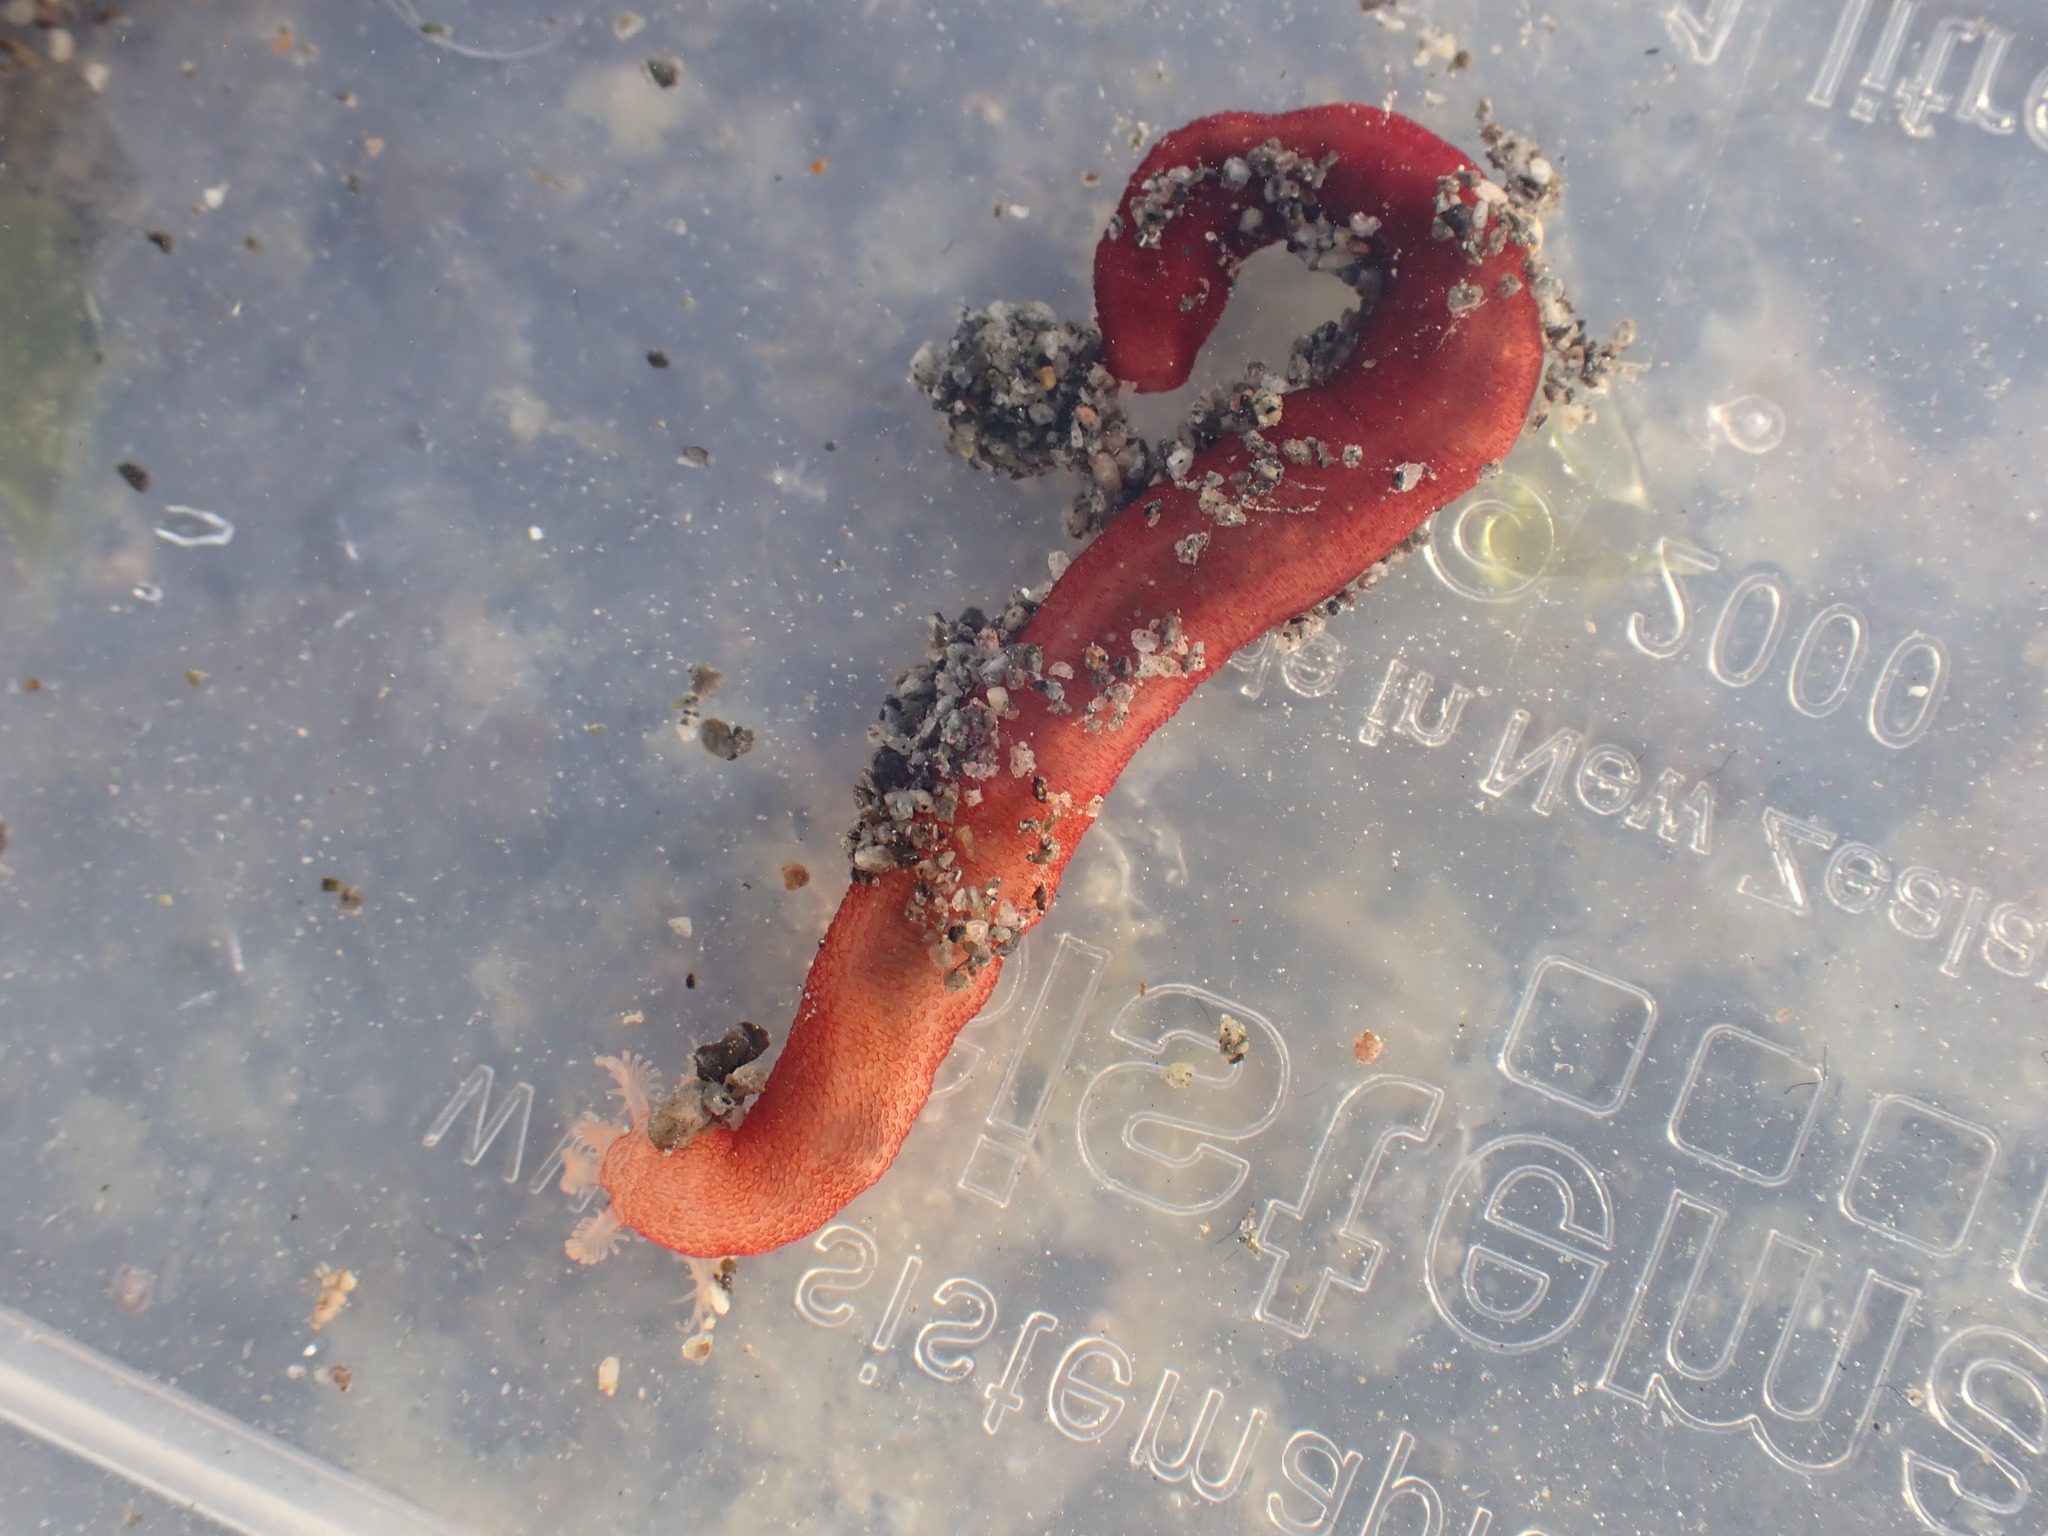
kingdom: Animalia
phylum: Echinodermata
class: Holothuroidea
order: Apodida
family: Chiridotidae
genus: Taeniogyrus
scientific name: Taeniogyrus dunedinensis
